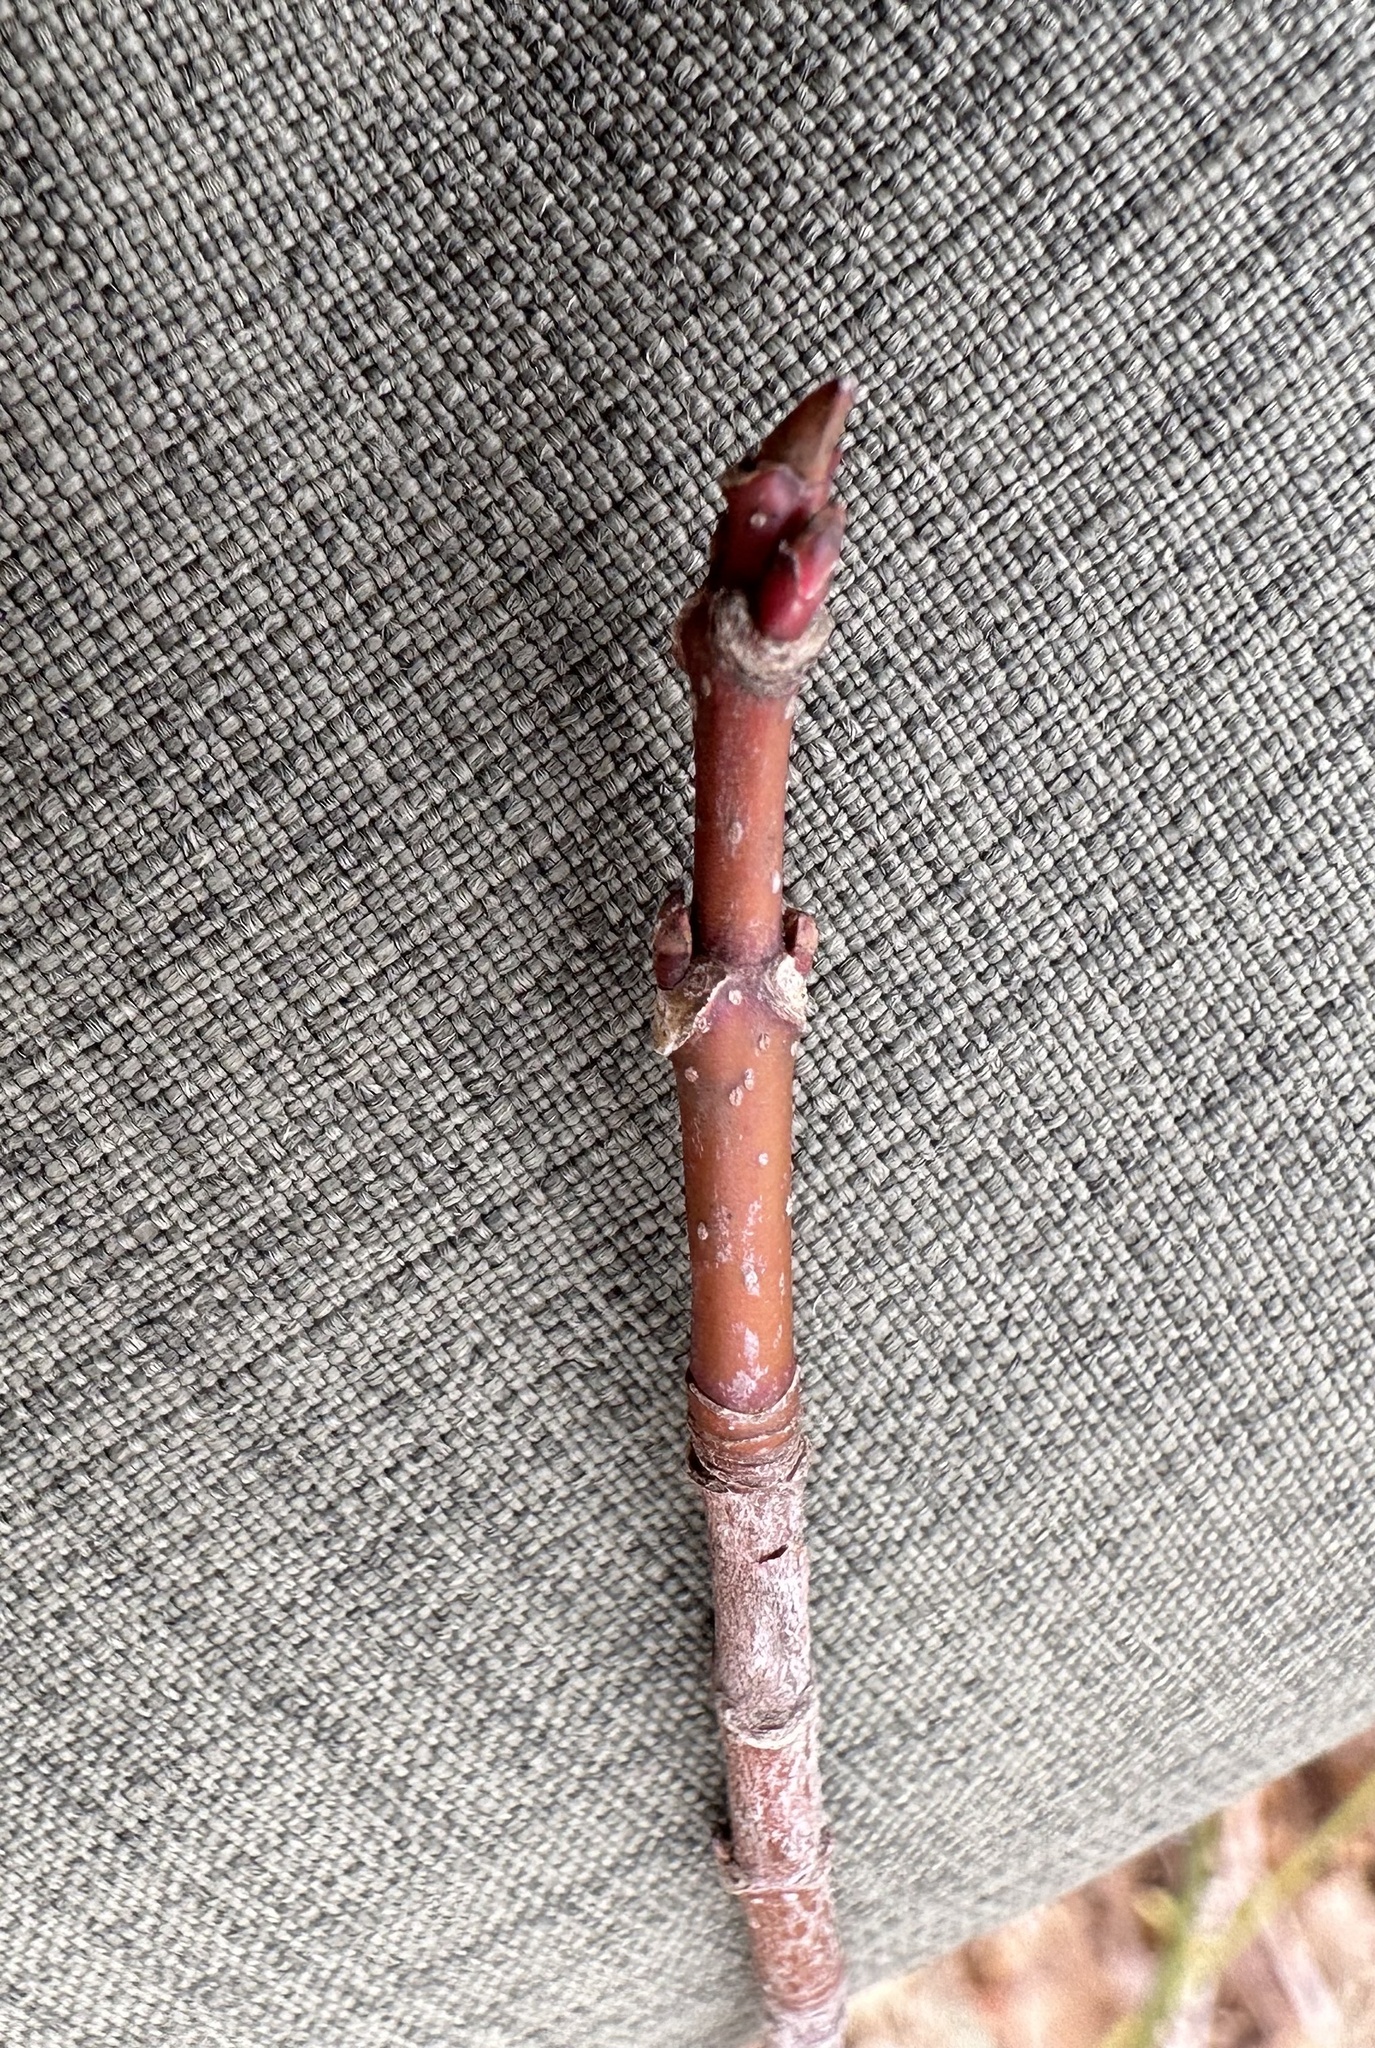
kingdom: Plantae
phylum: Tracheophyta
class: Magnoliopsida
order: Sapindales
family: Sapindaceae
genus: Acer
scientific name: Acer rubrum
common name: Red maple
